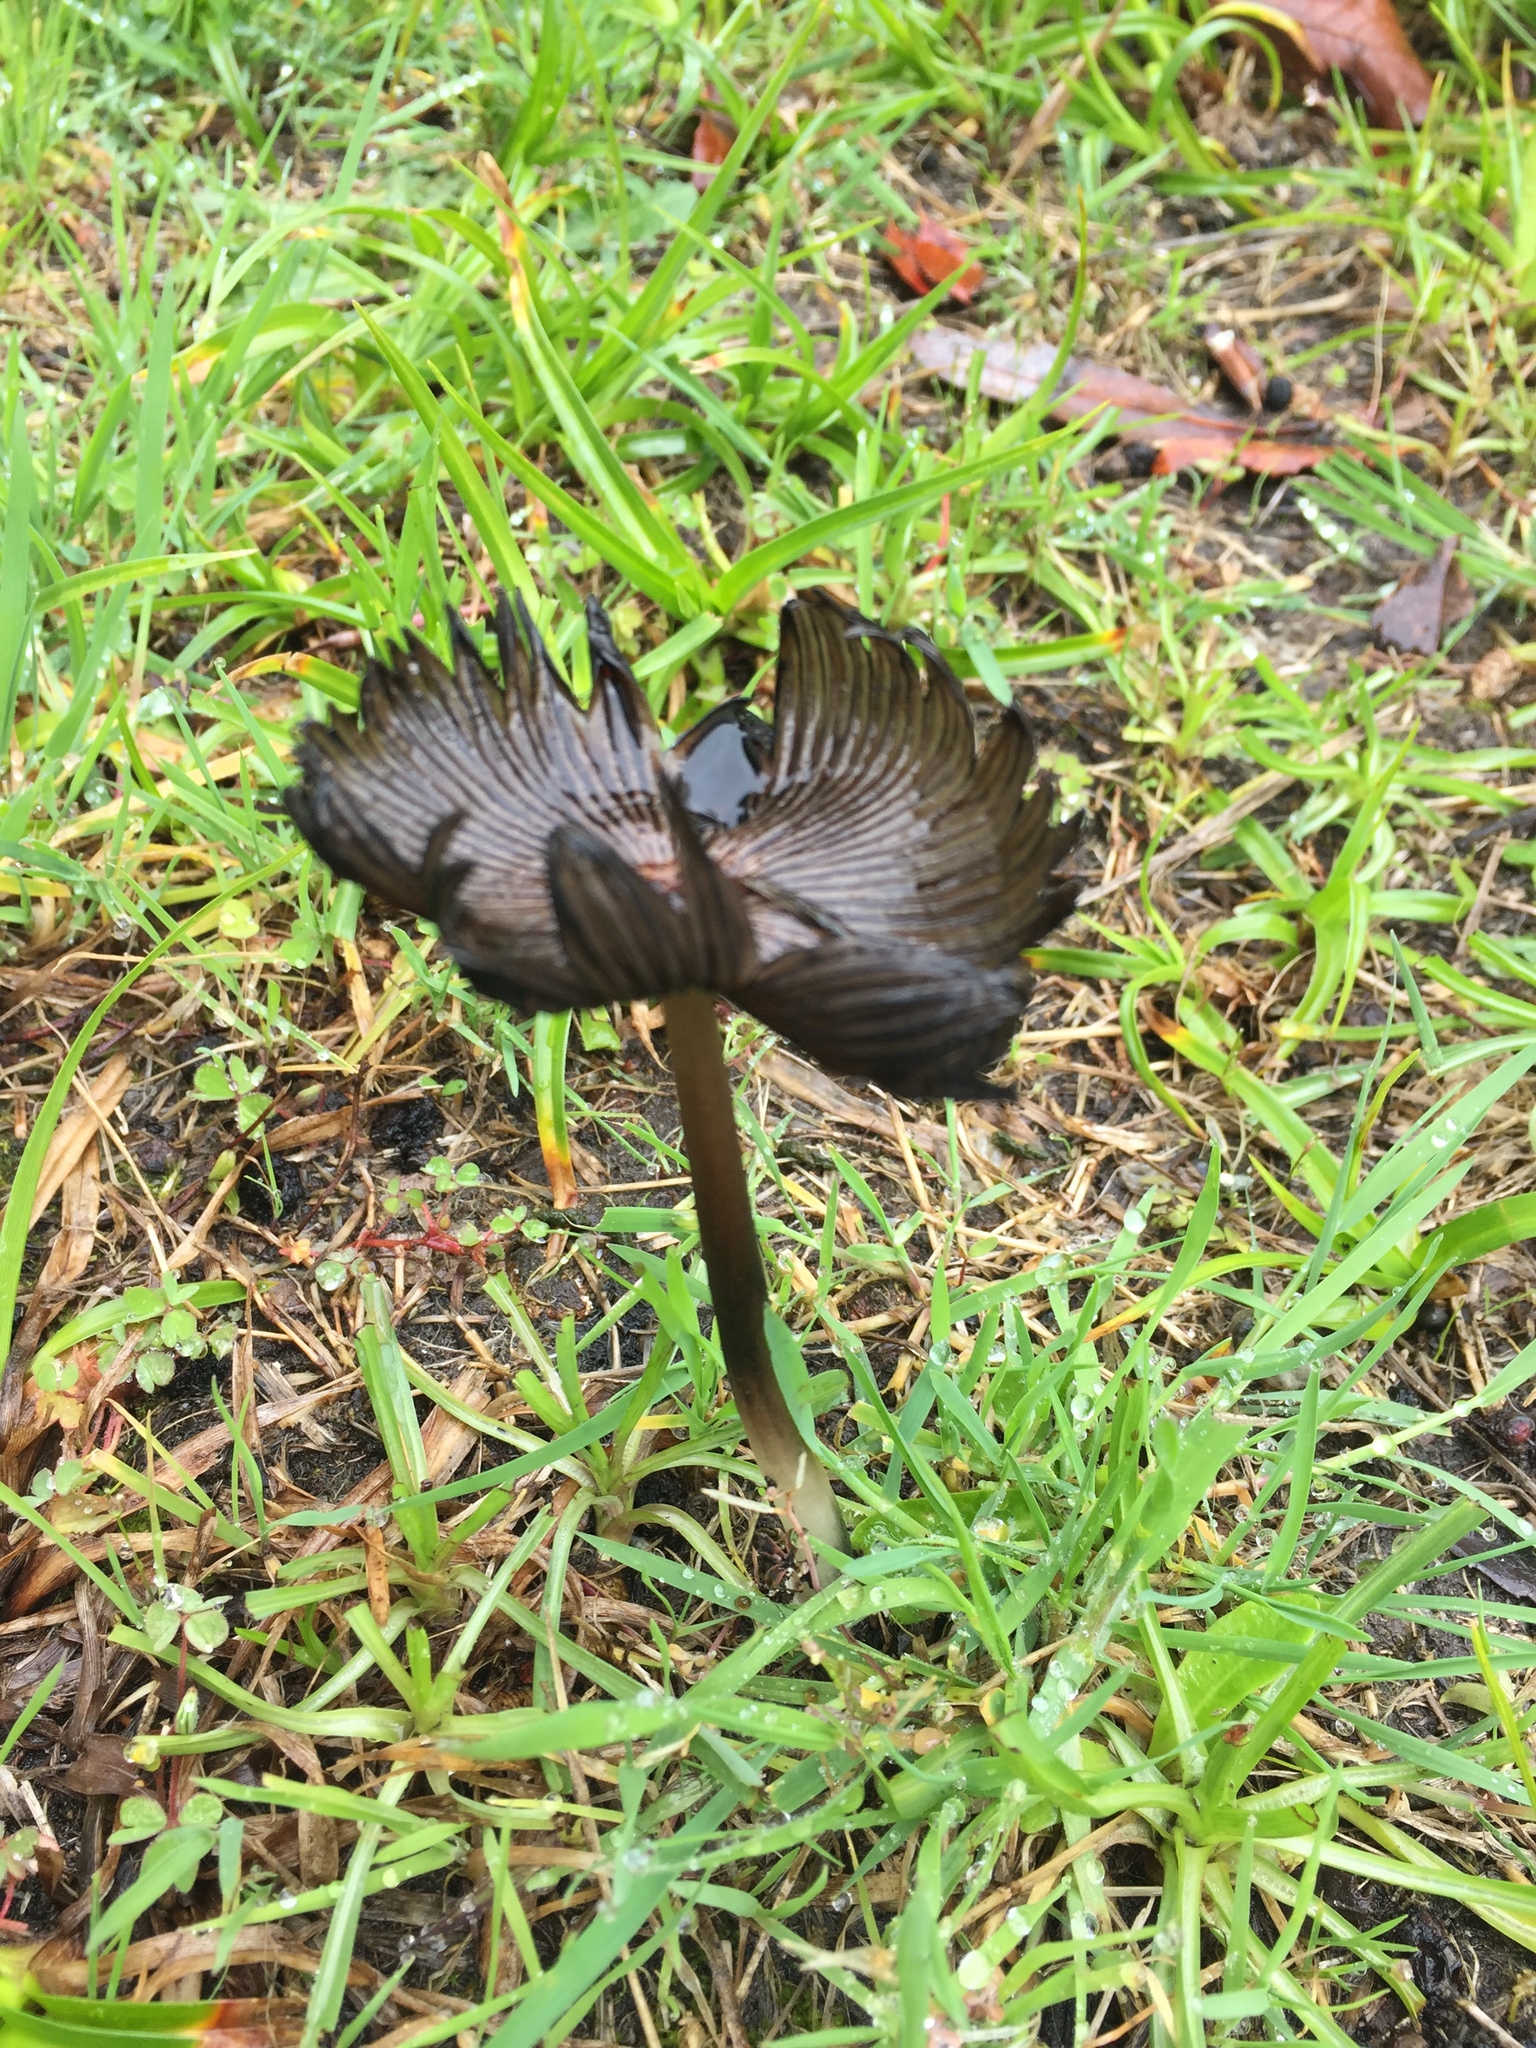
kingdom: Fungi
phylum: Basidiomycota
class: Agaricomycetes
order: Agaricales
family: Psathyrellaceae
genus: Coprinopsis
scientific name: Coprinopsis lagopus
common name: Hare'sfoot inkcap
